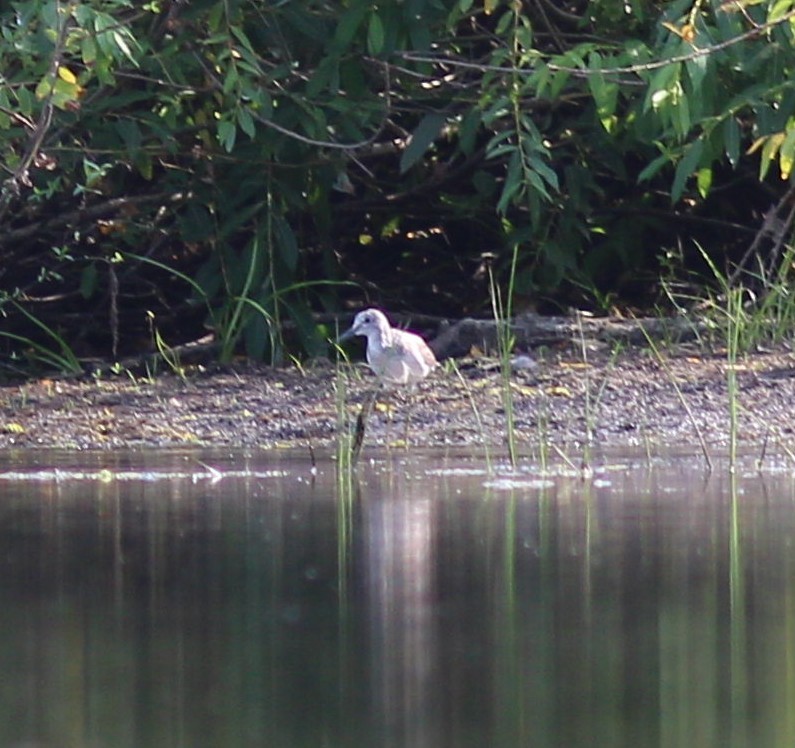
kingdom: Animalia
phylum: Chordata
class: Aves
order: Charadriiformes
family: Scolopacidae
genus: Tringa
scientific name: Tringa nebularia
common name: Common greenshank
